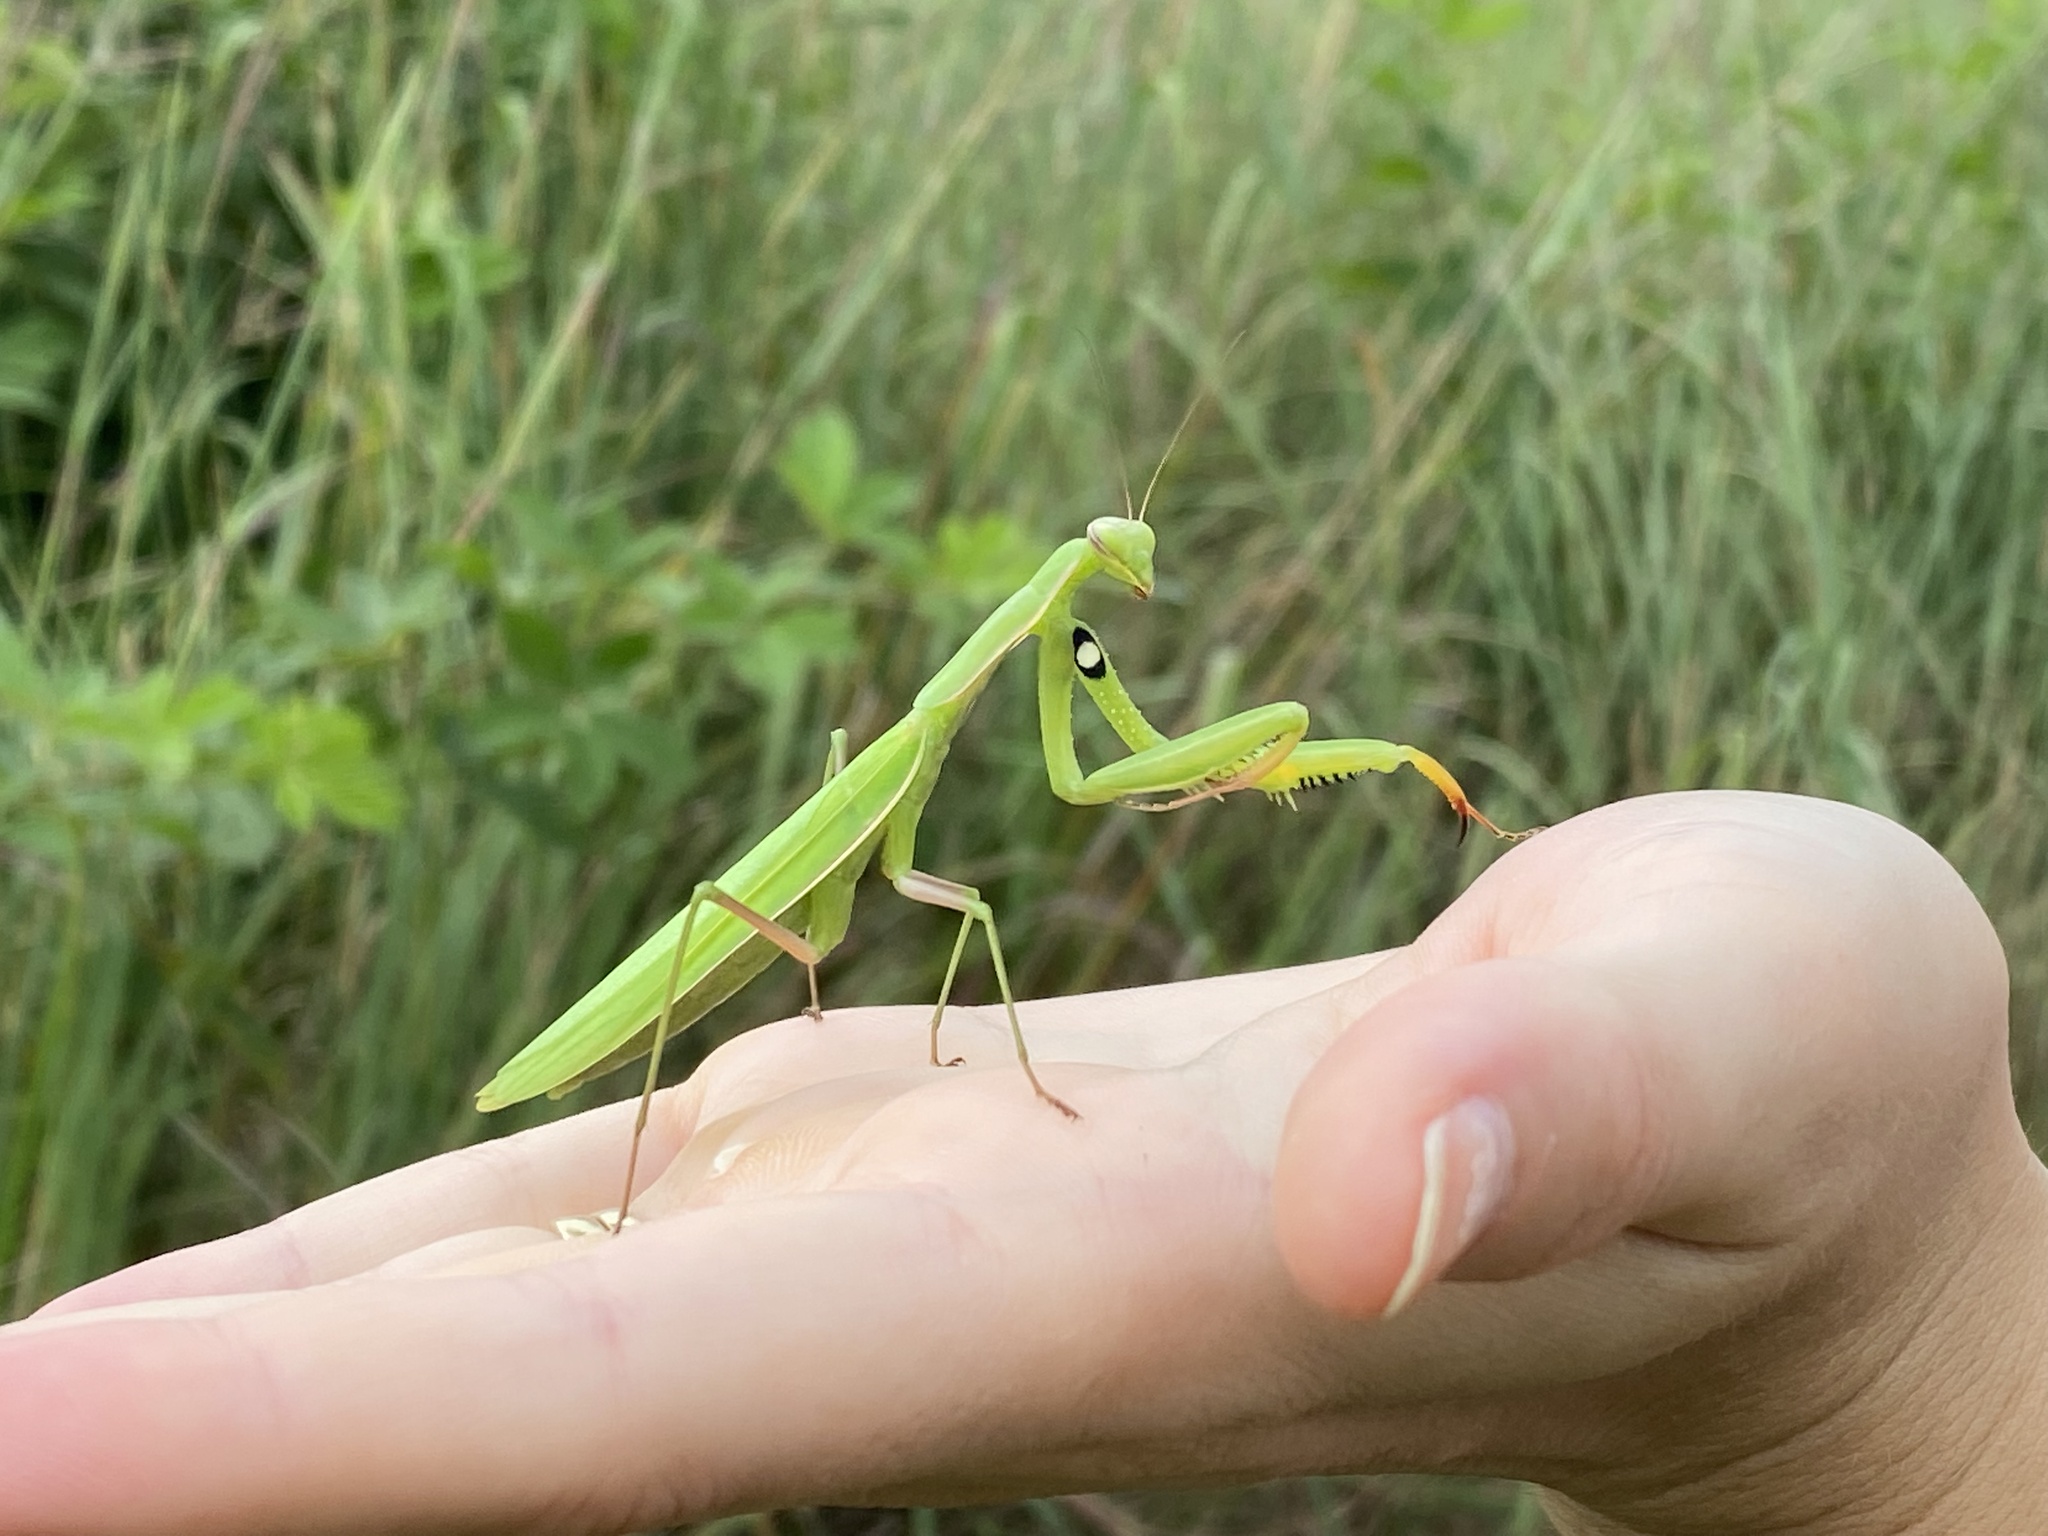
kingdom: Animalia
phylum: Arthropoda
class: Insecta
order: Mantodea
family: Mantidae
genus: Mantis
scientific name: Mantis religiosa
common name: Praying mantis
